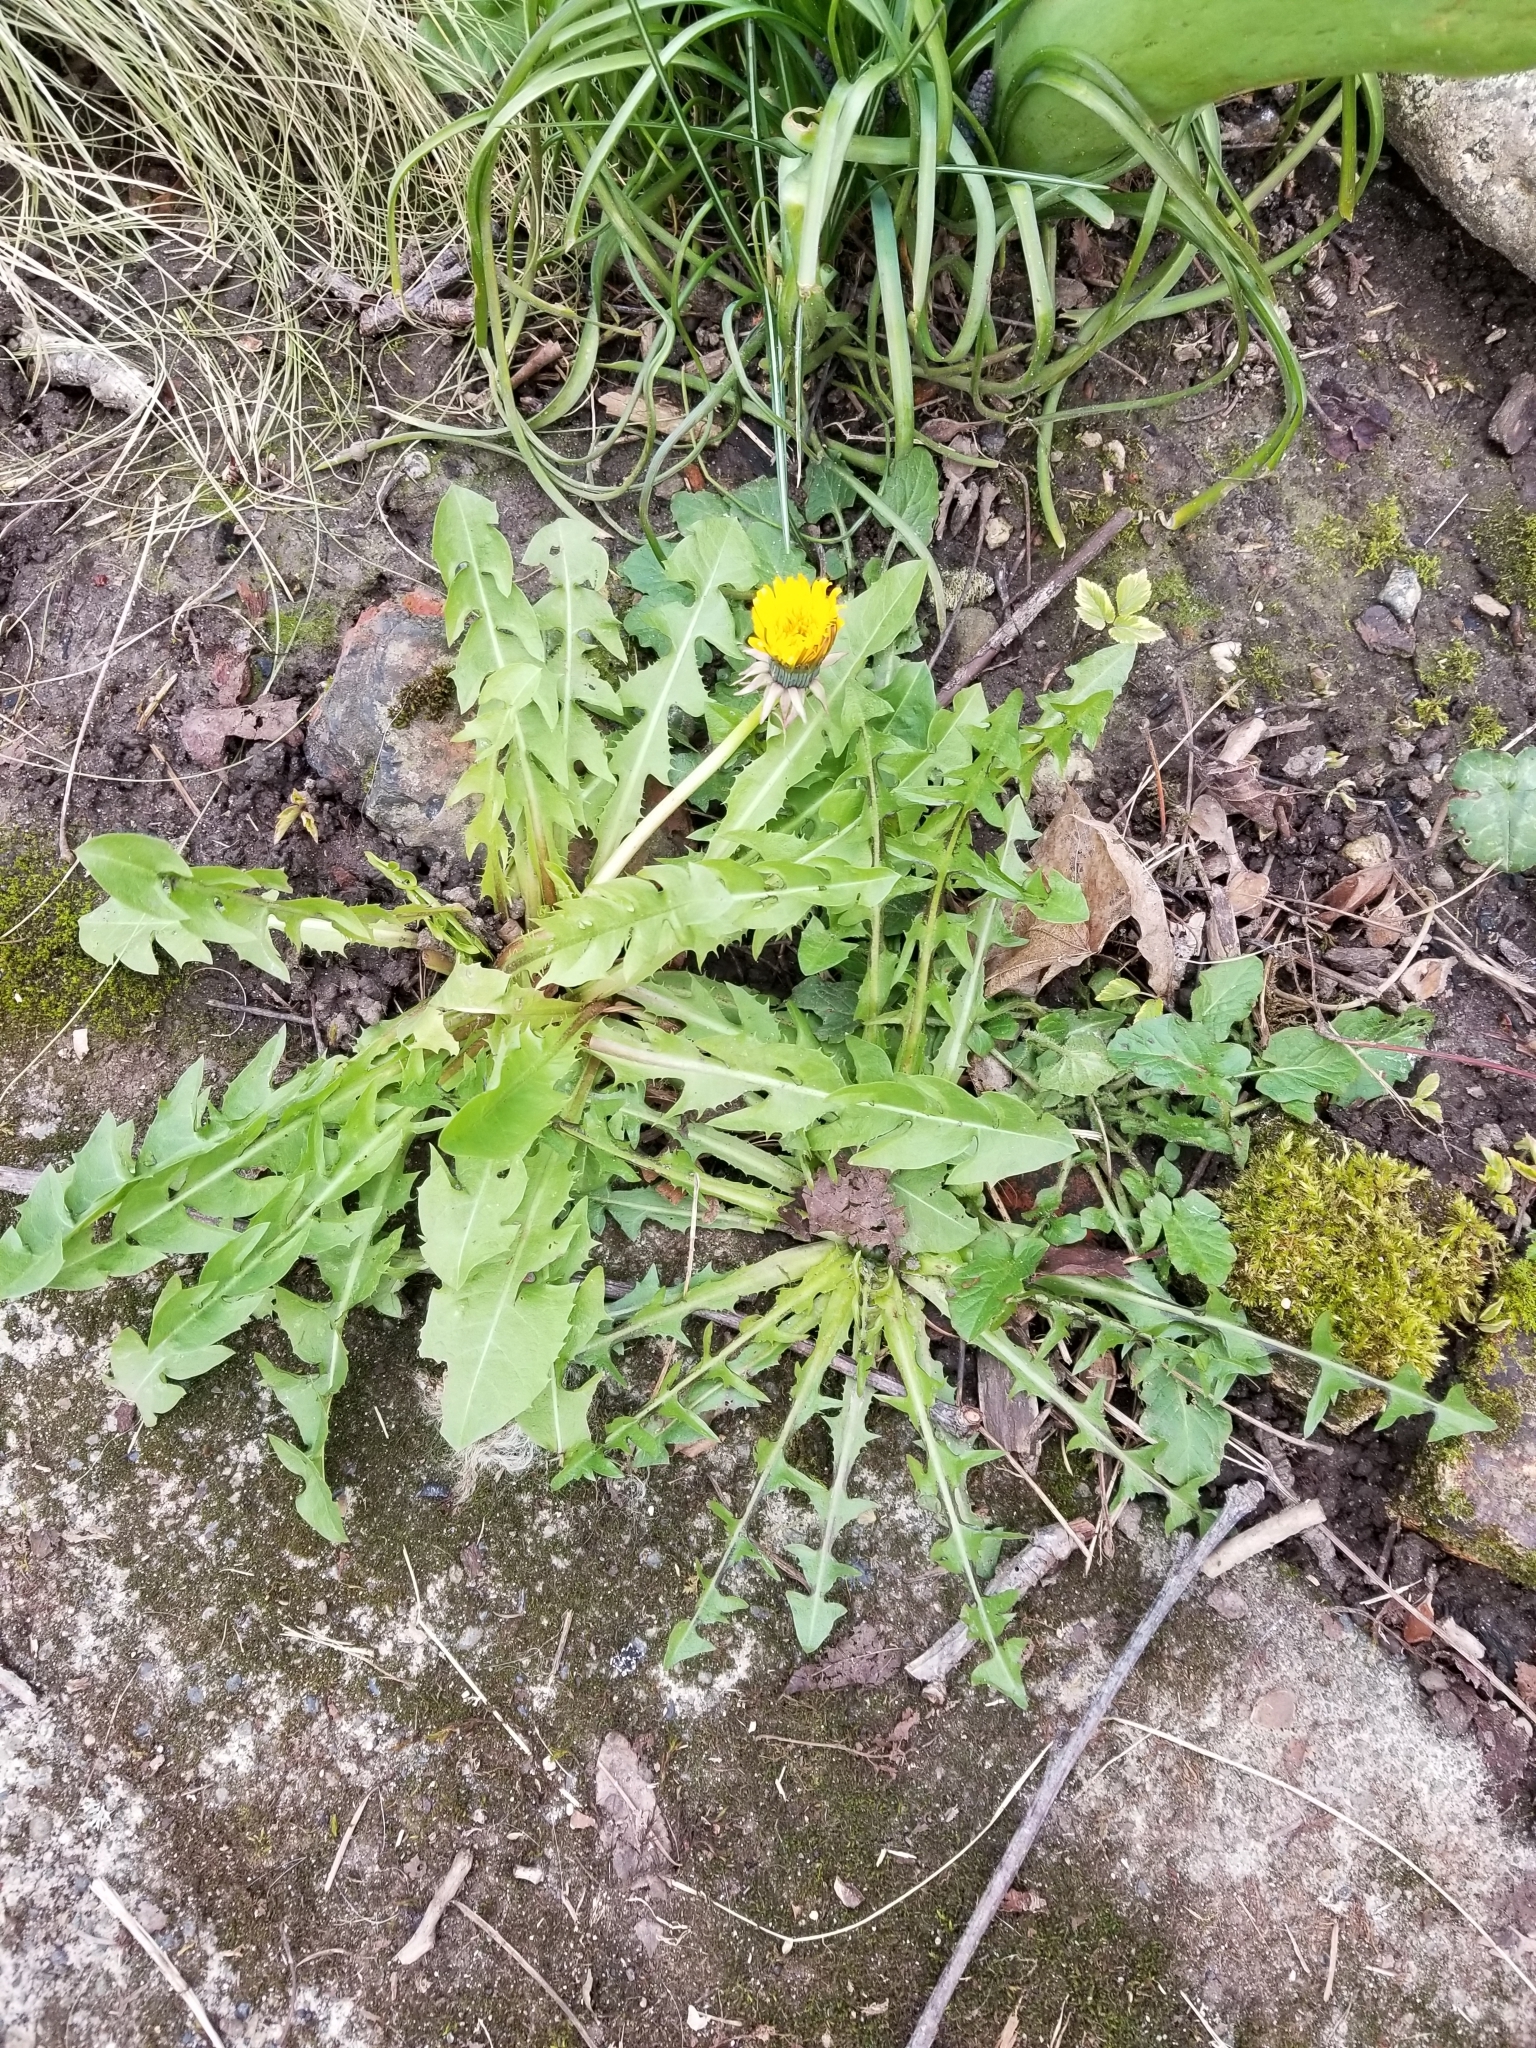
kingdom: Plantae
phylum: Tracheophyta
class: Magnoliopsida
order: Asterales
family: Asteraceae
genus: Taraxacum
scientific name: Taraxacum officinale
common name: Common dandelion
